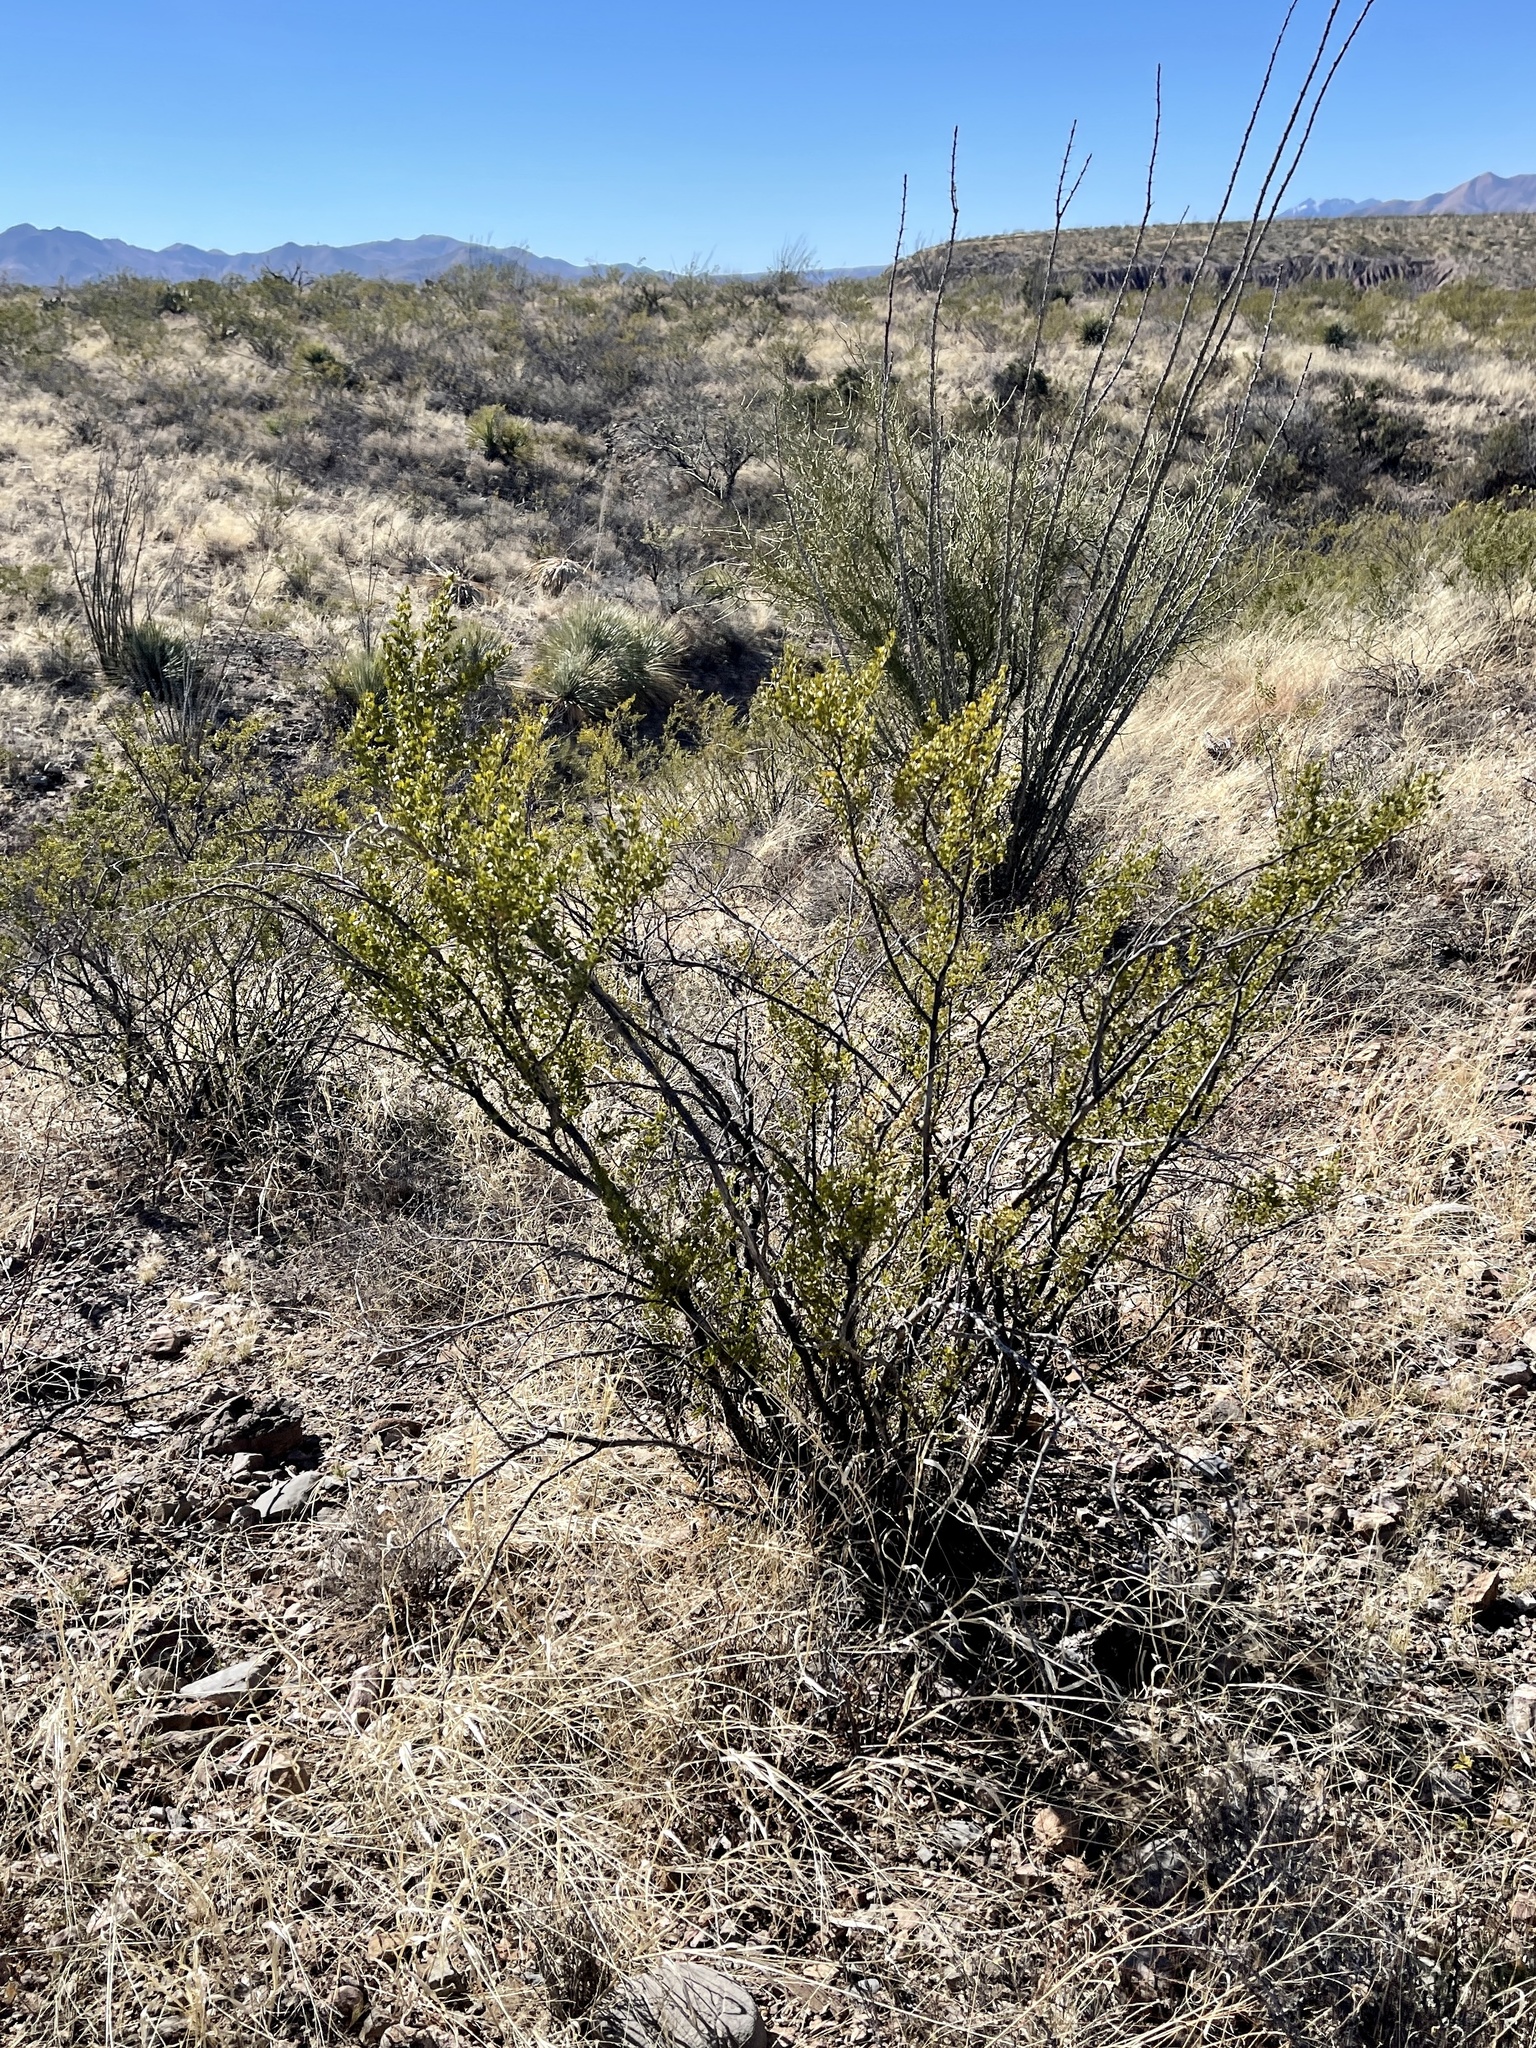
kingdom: Plantae
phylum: Tracheophyta
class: Magnoliopsida
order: Zygophyllales
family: Zygophyllaceae
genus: Larrea
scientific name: Larrea tridentata
